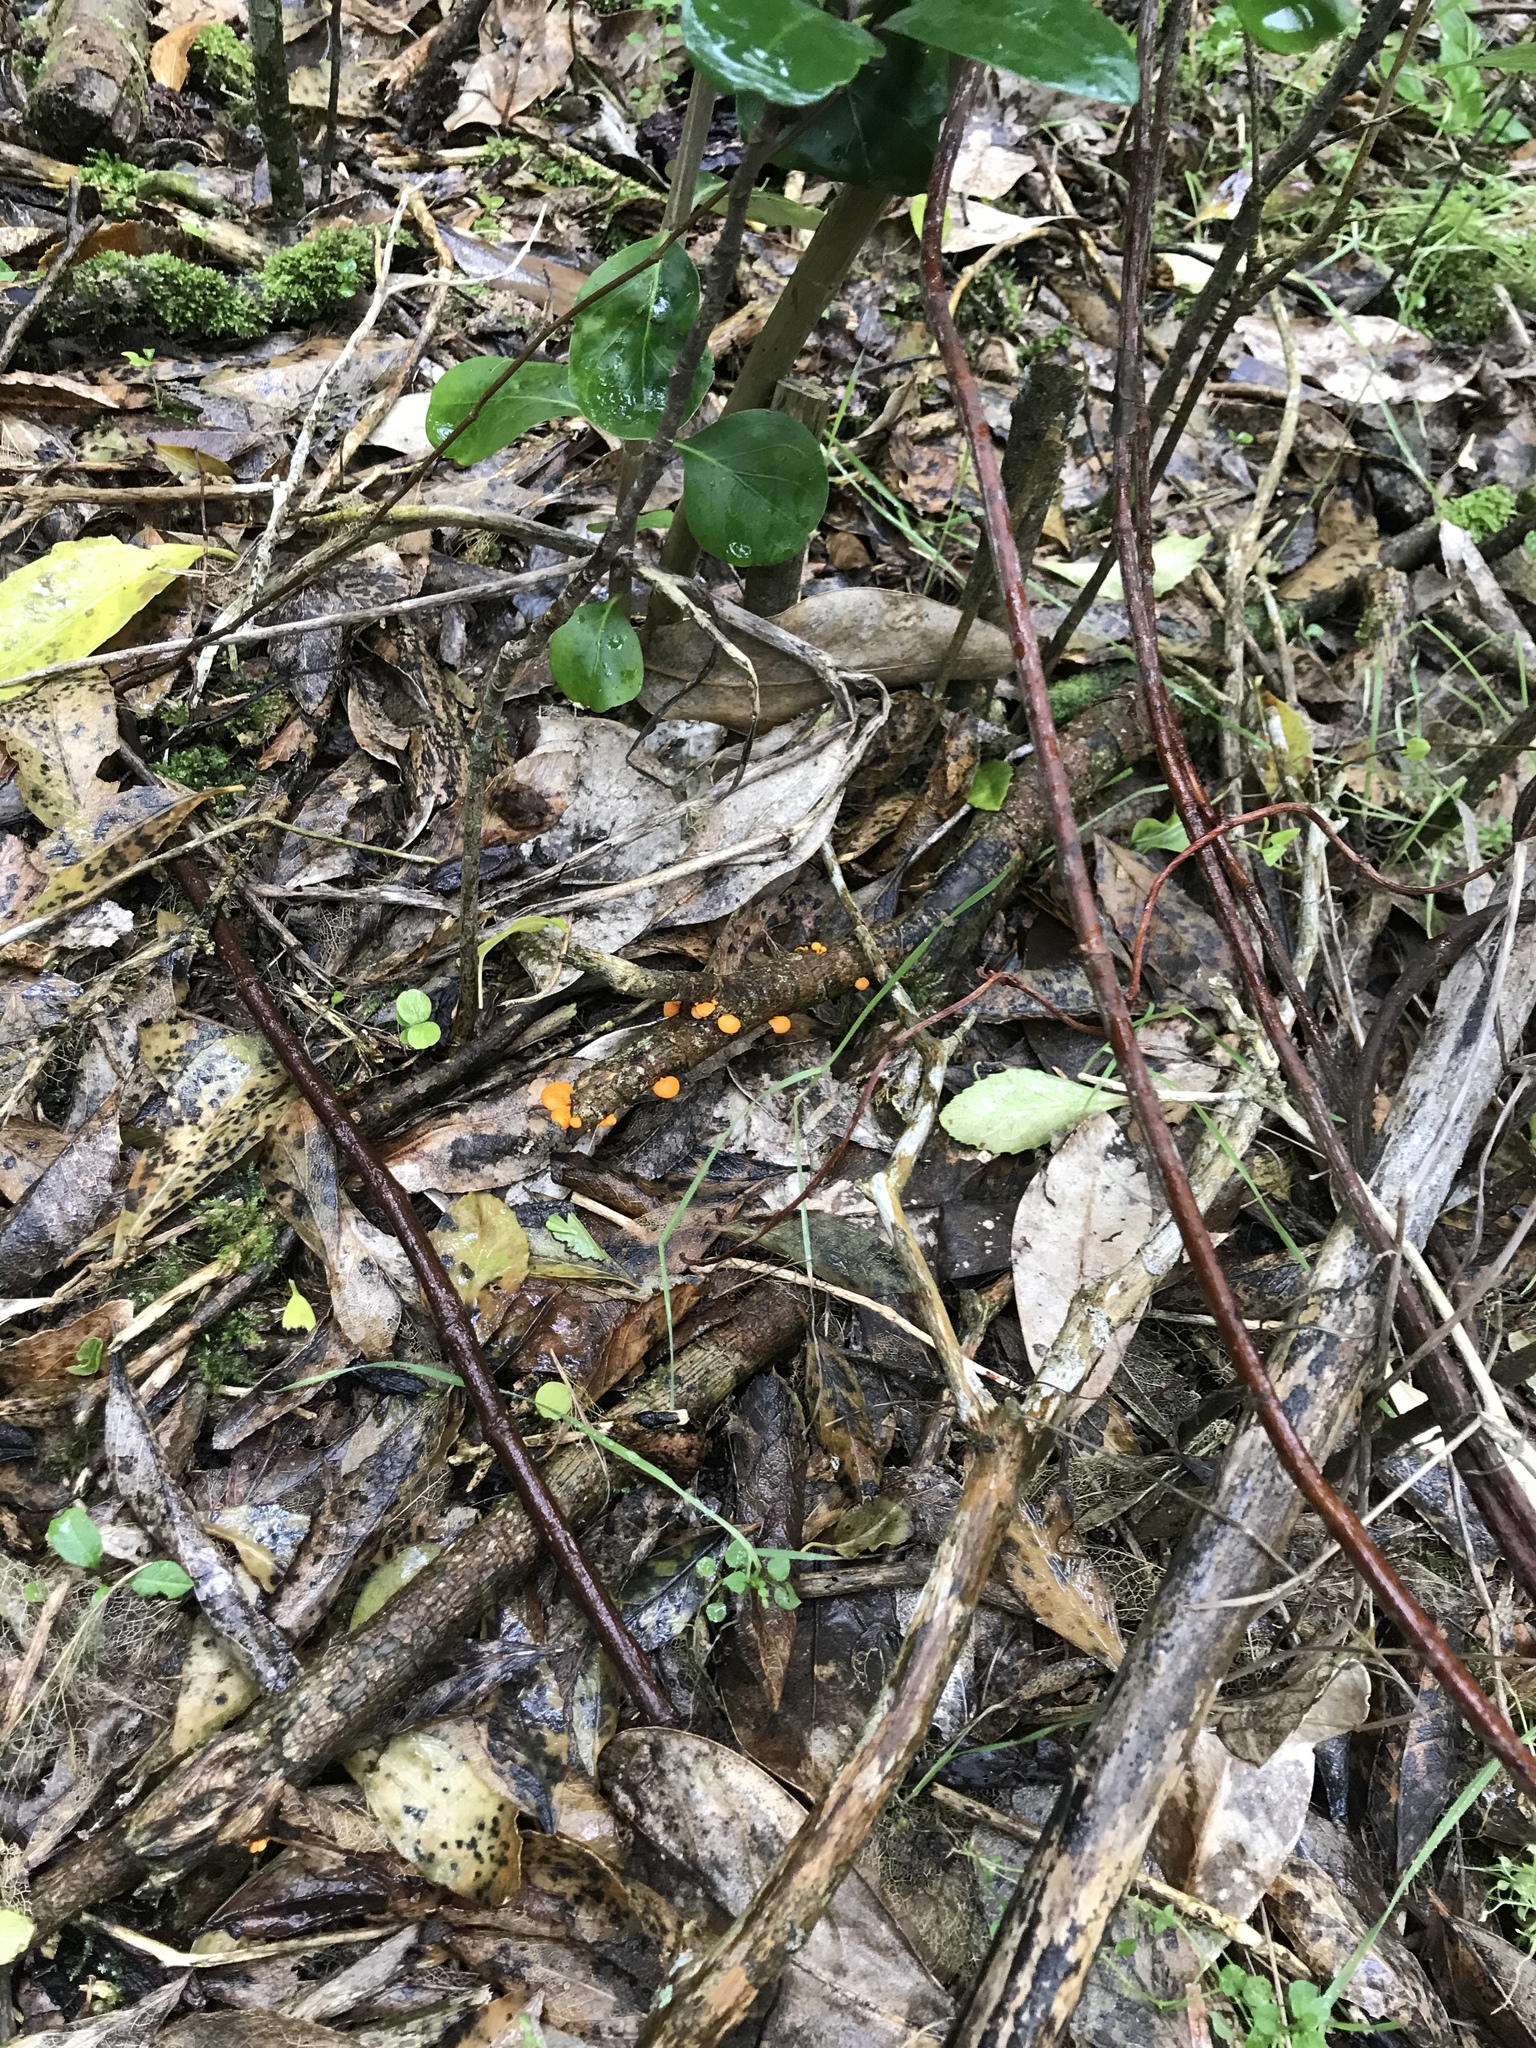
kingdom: Fungi
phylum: Basidiomycota
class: Agaricomycetes
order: Agaricales
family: Mycenaceae
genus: Favolaschia
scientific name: Favolaschia claudopus
